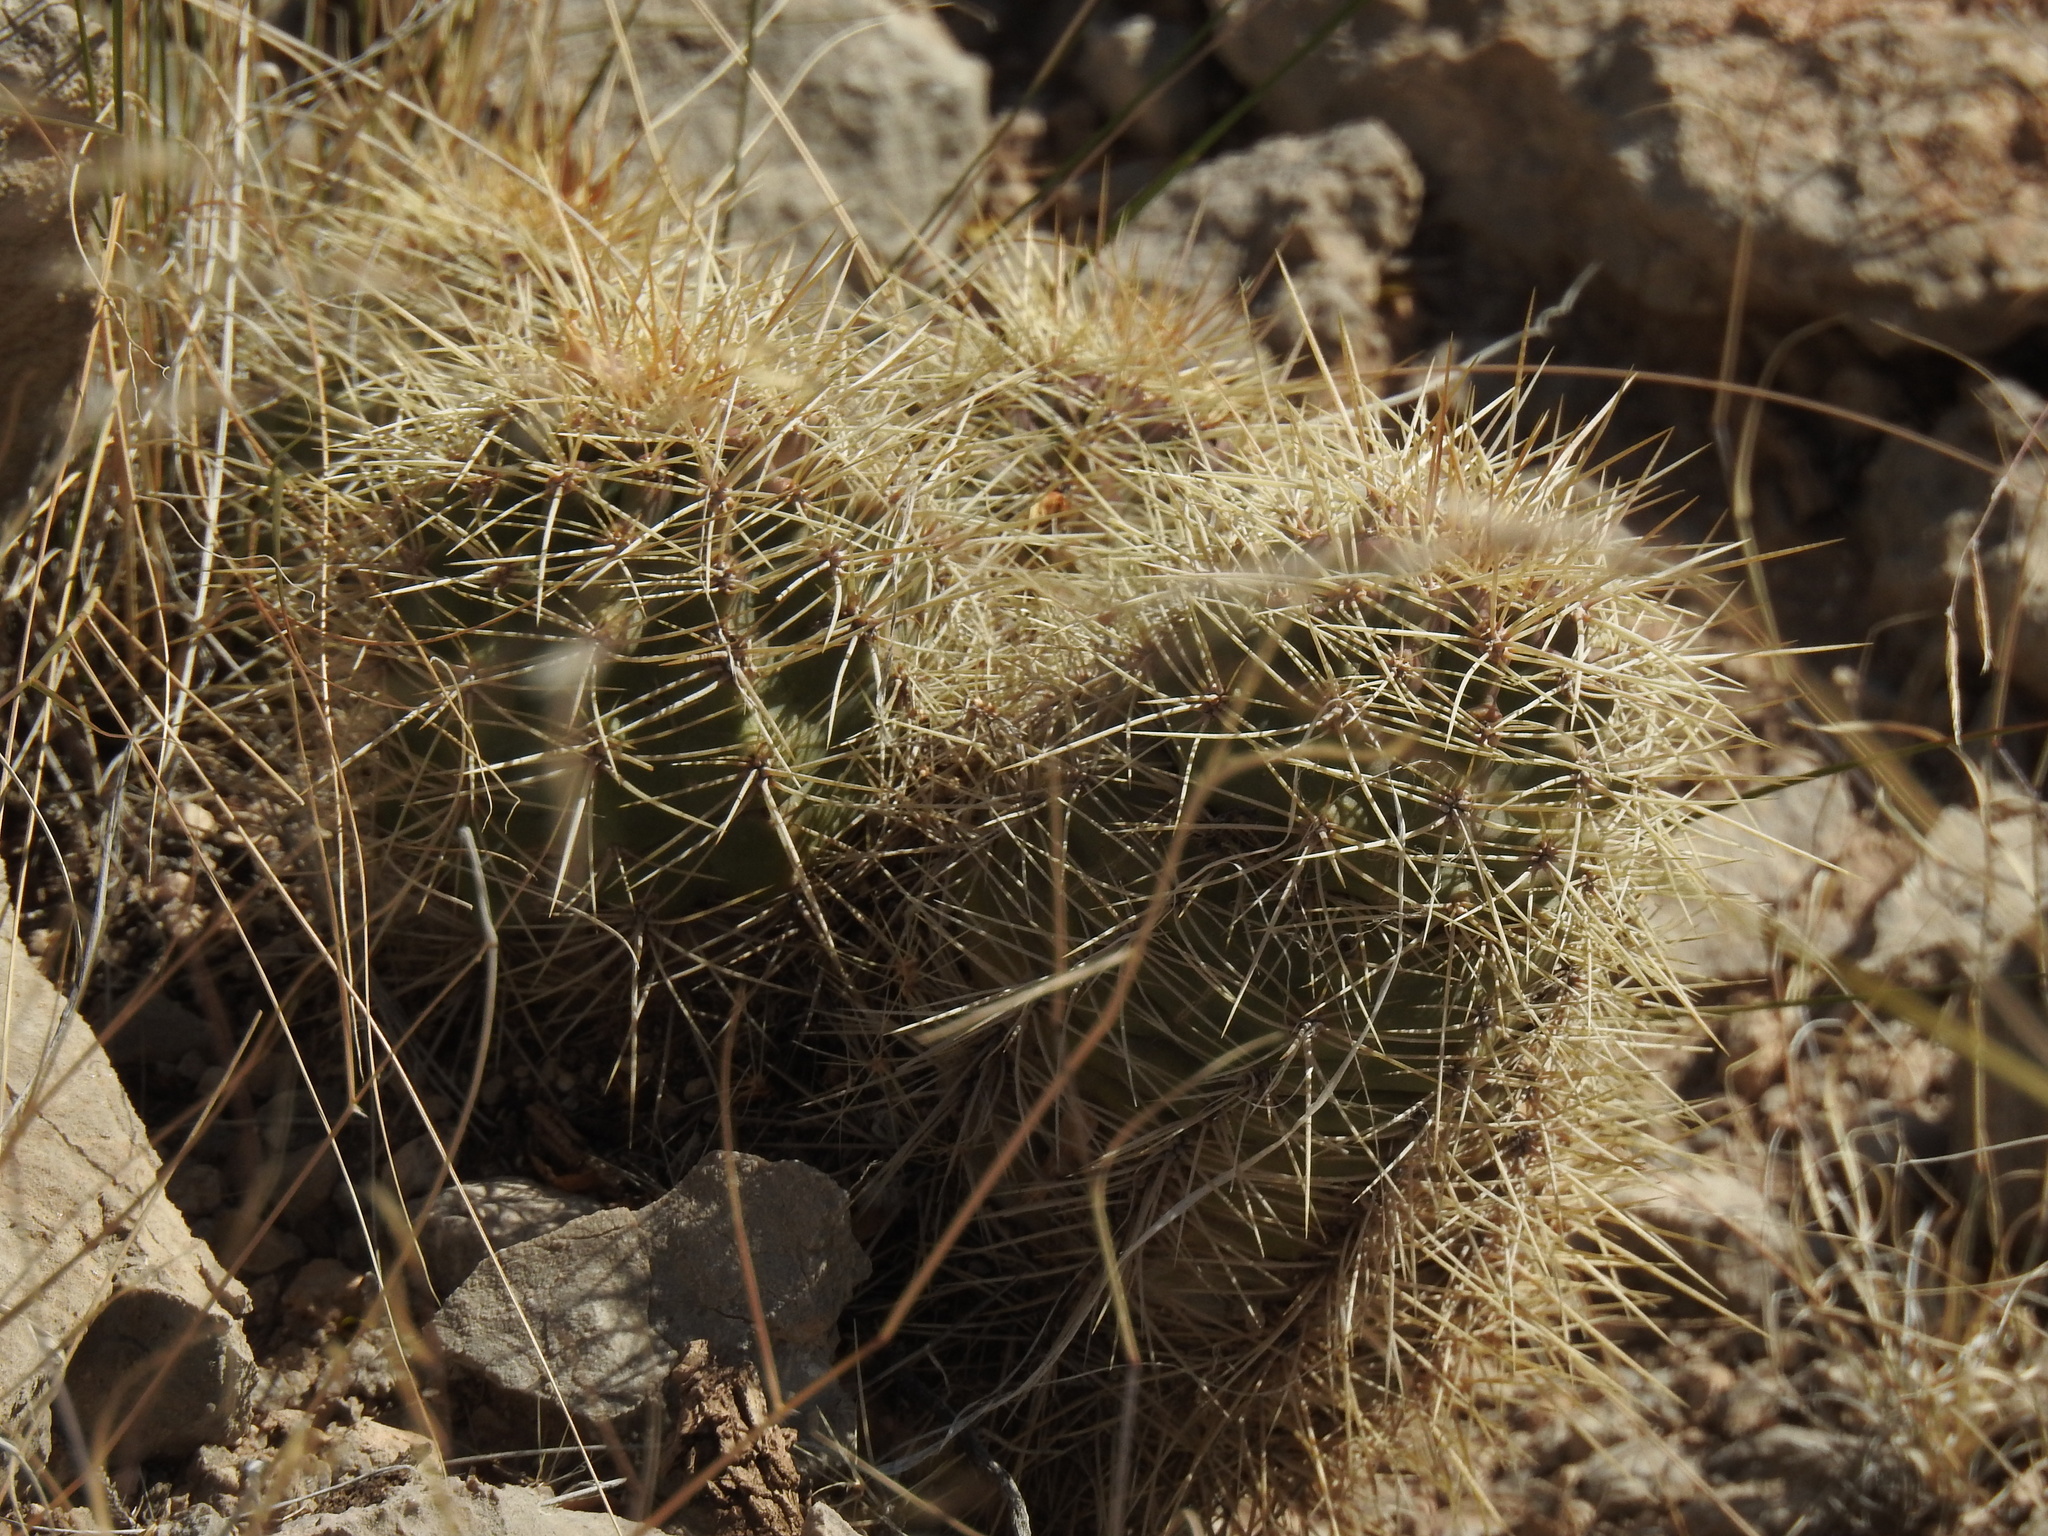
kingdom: Plantae
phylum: Tracheophyta
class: Magnoliopsida
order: Caryophyllales
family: Cactaceae
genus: Echinocereus
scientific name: Echinocereus coccineus
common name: Scarlet hedgehog cactus
